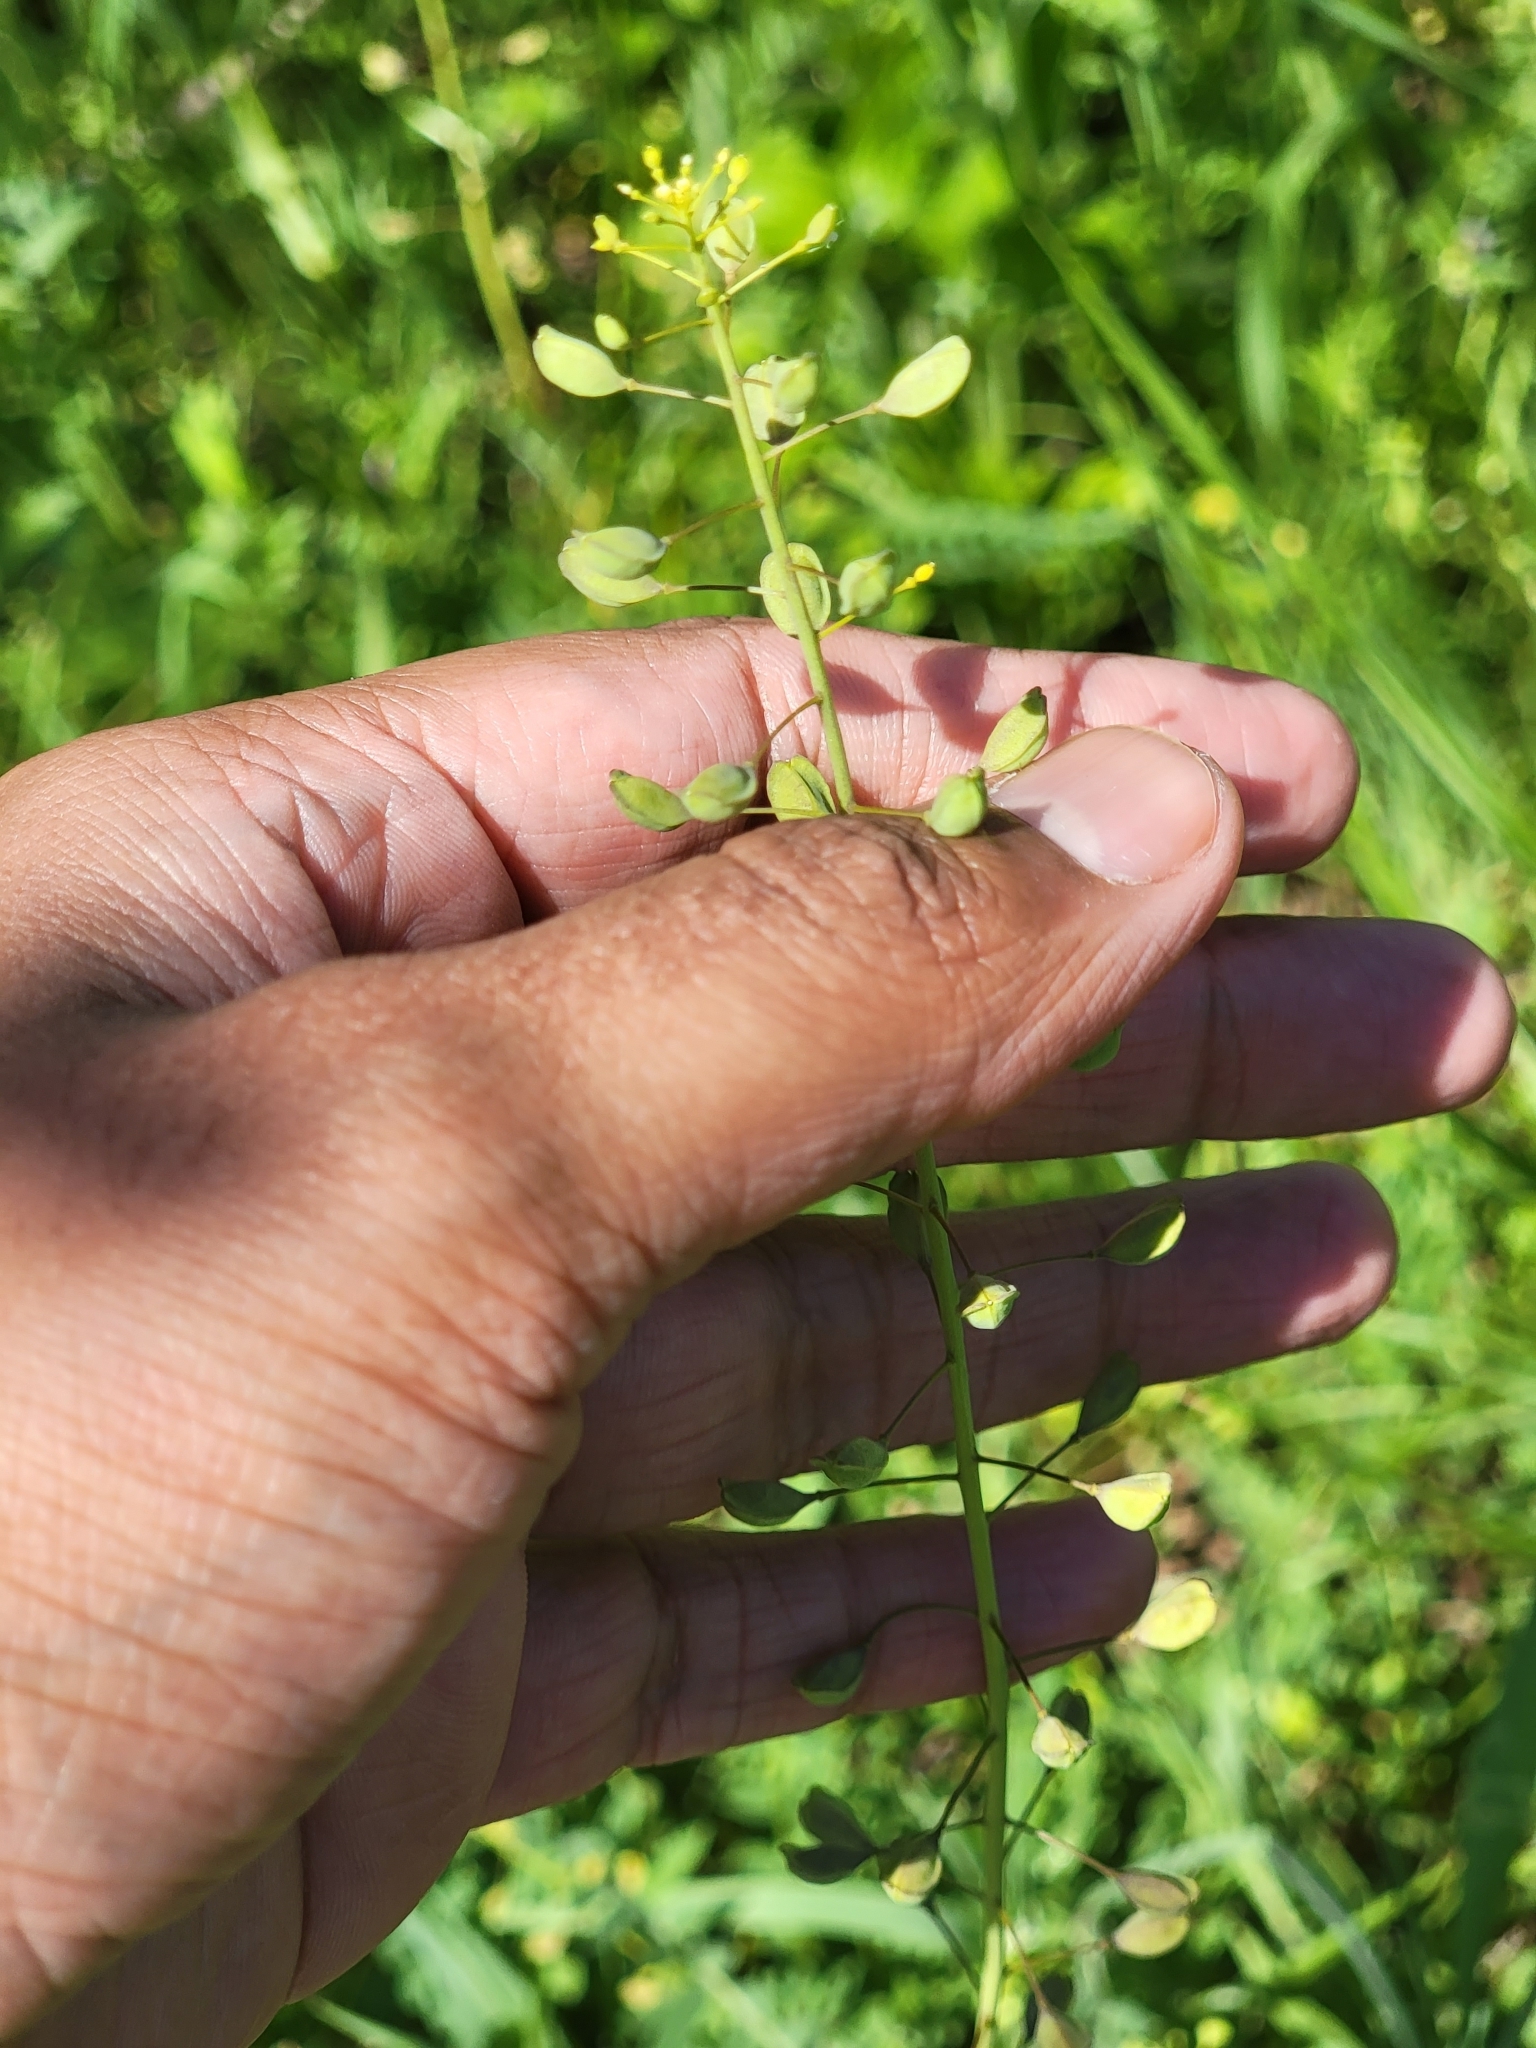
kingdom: Plantae
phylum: Tracheophyta
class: Magnoliopsida
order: Brassicales
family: Brassicaceae
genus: Mummenhoffia
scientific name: Mummenhoffia alliacea
